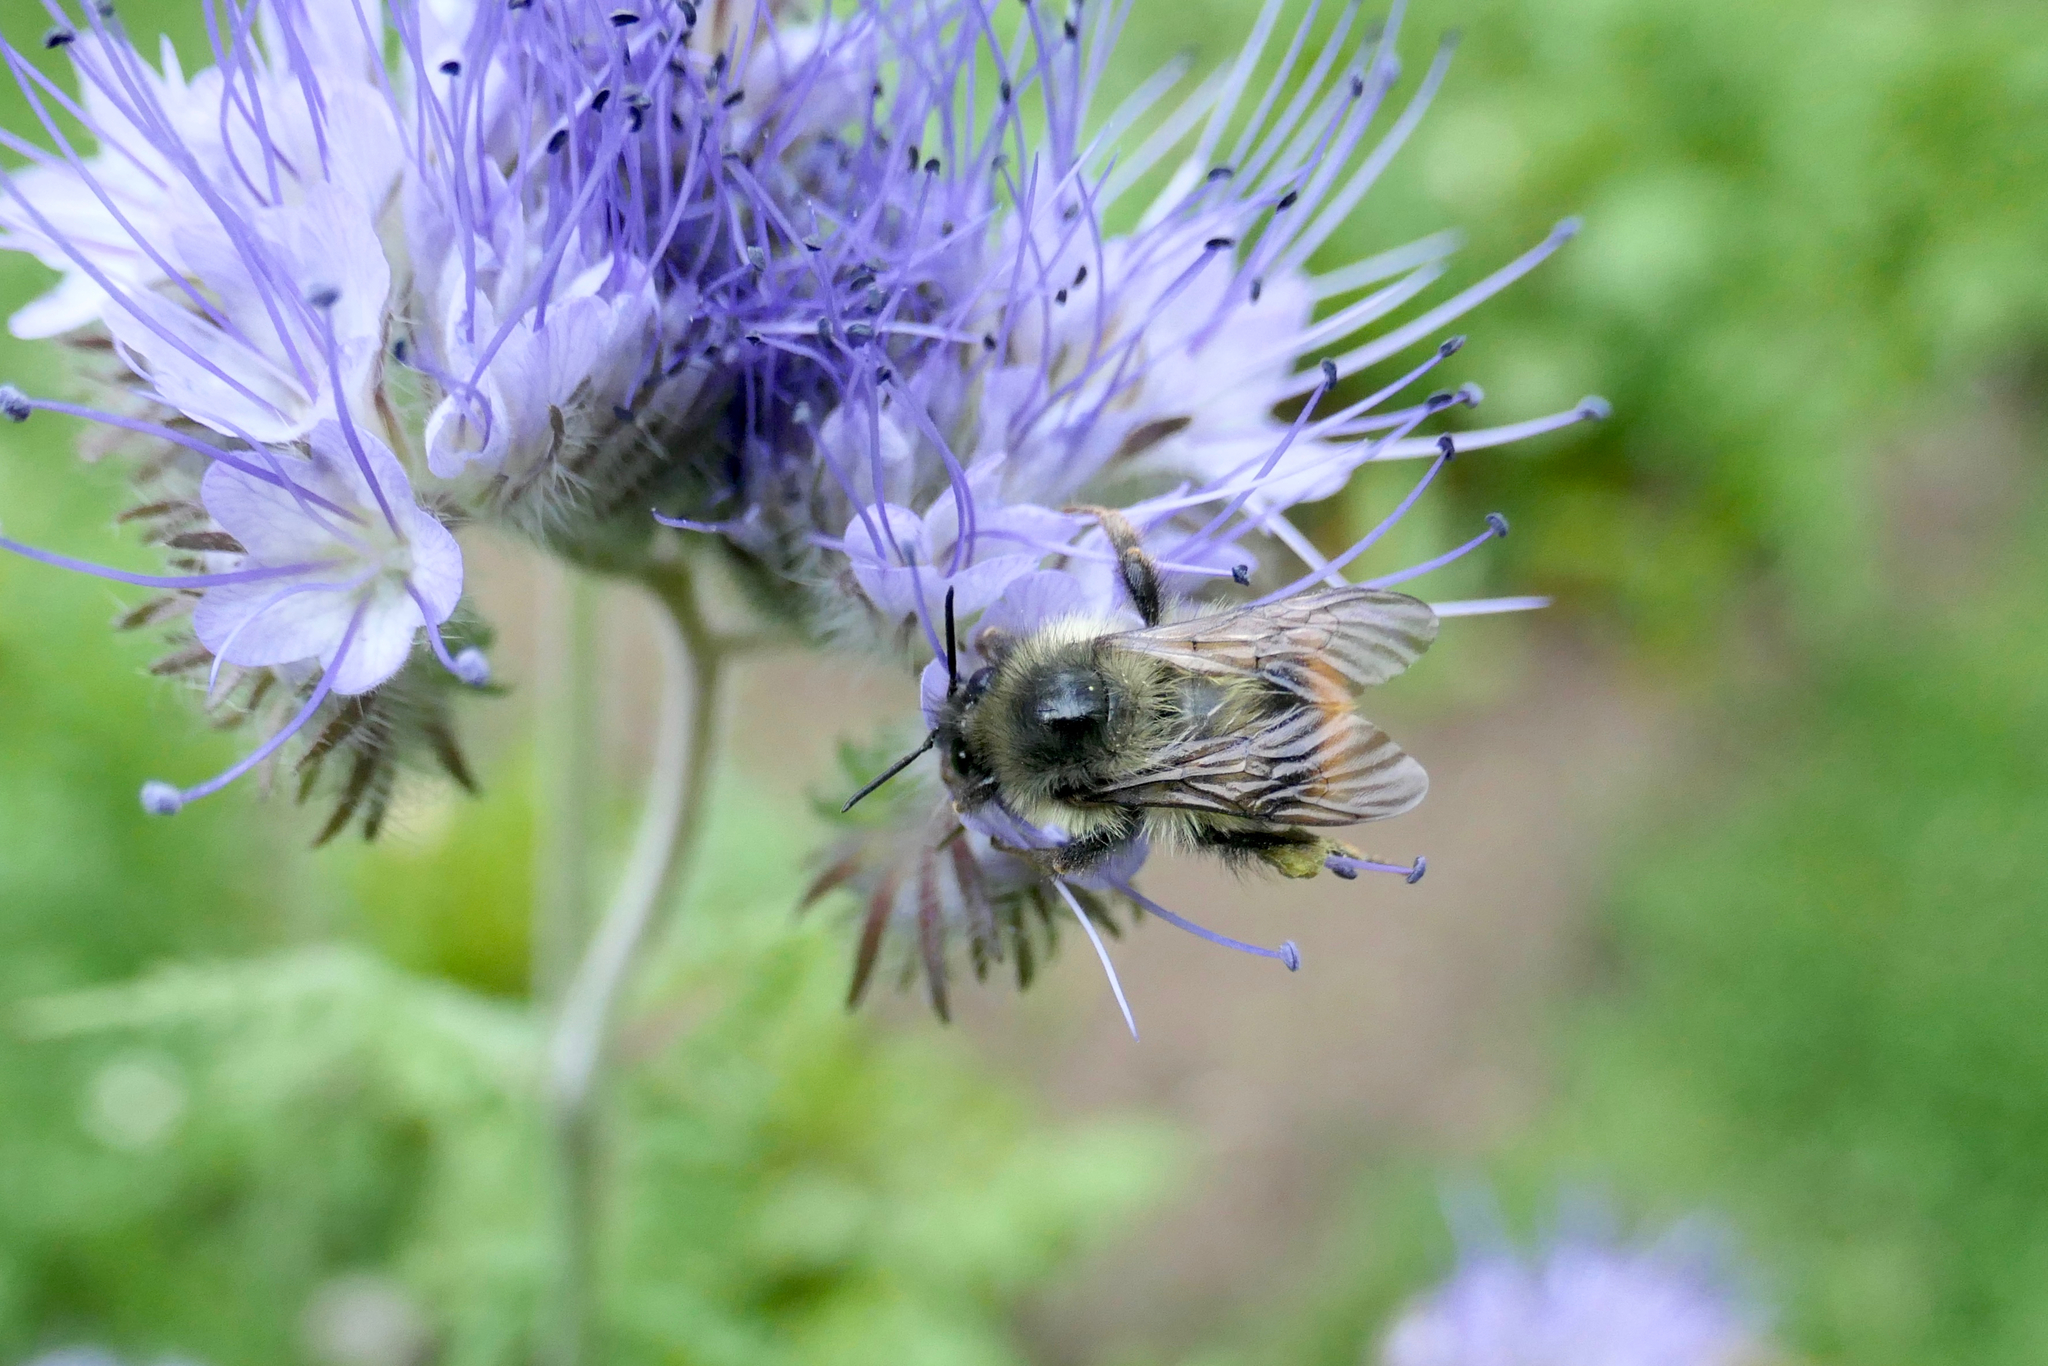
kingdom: Animalia
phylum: Arthropoda
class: Insecta
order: Hymenoptera
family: Apidae
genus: Bombus
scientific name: Bombus mixtus
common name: Fuzzy-horned bumble bee
